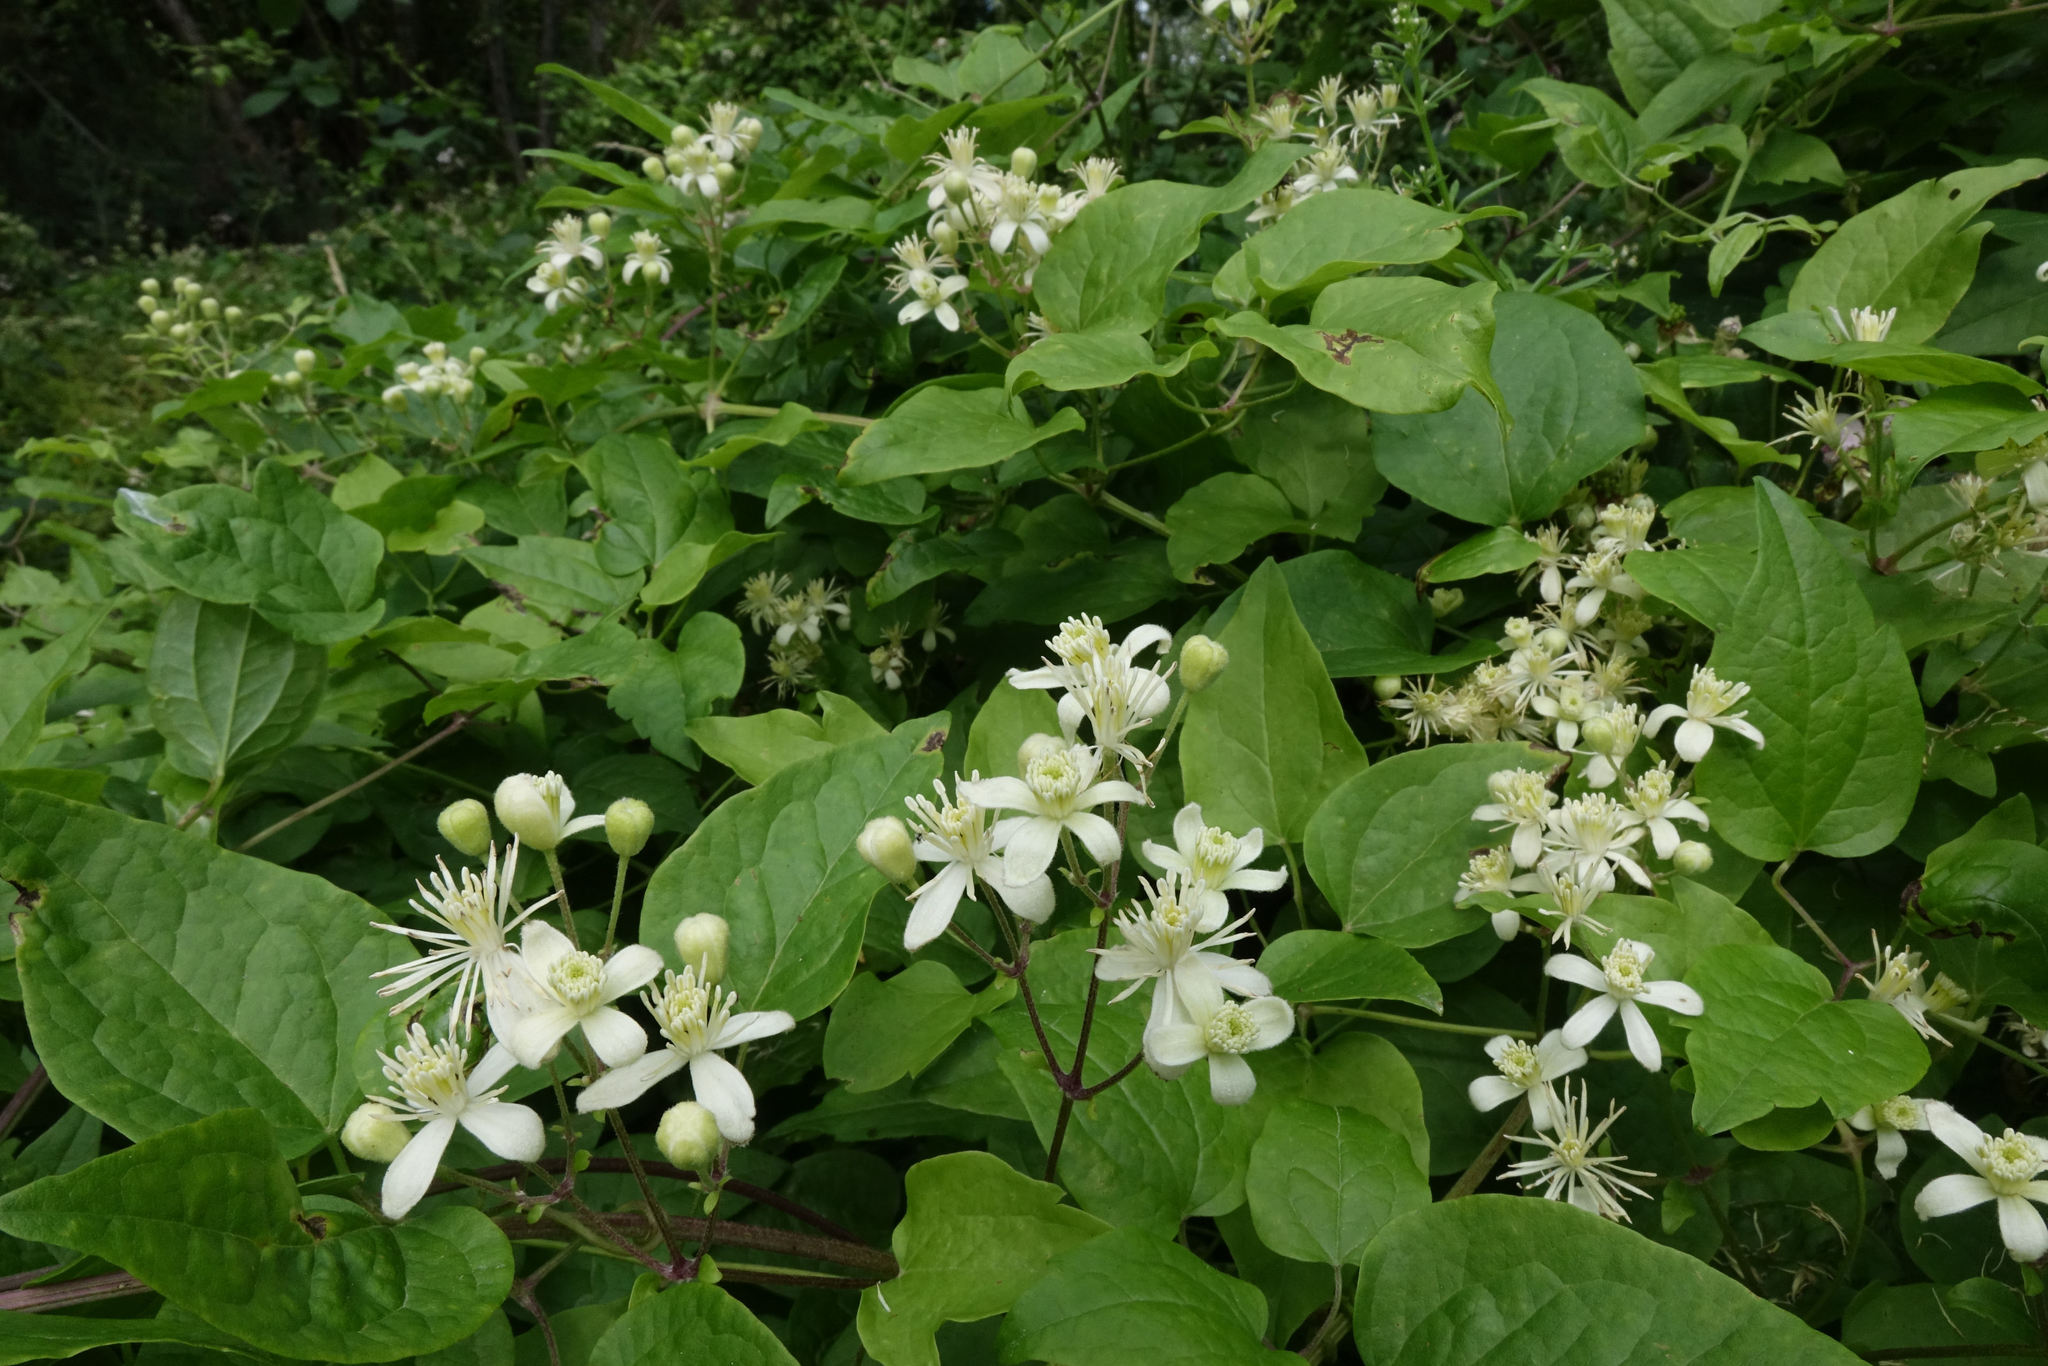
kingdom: Plantae
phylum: Tracheophyta
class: Magnoliopsida
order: Ranunculales
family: Ranunculaceae
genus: Clematis
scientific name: Clematis vitalba
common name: Evergreen clematis
